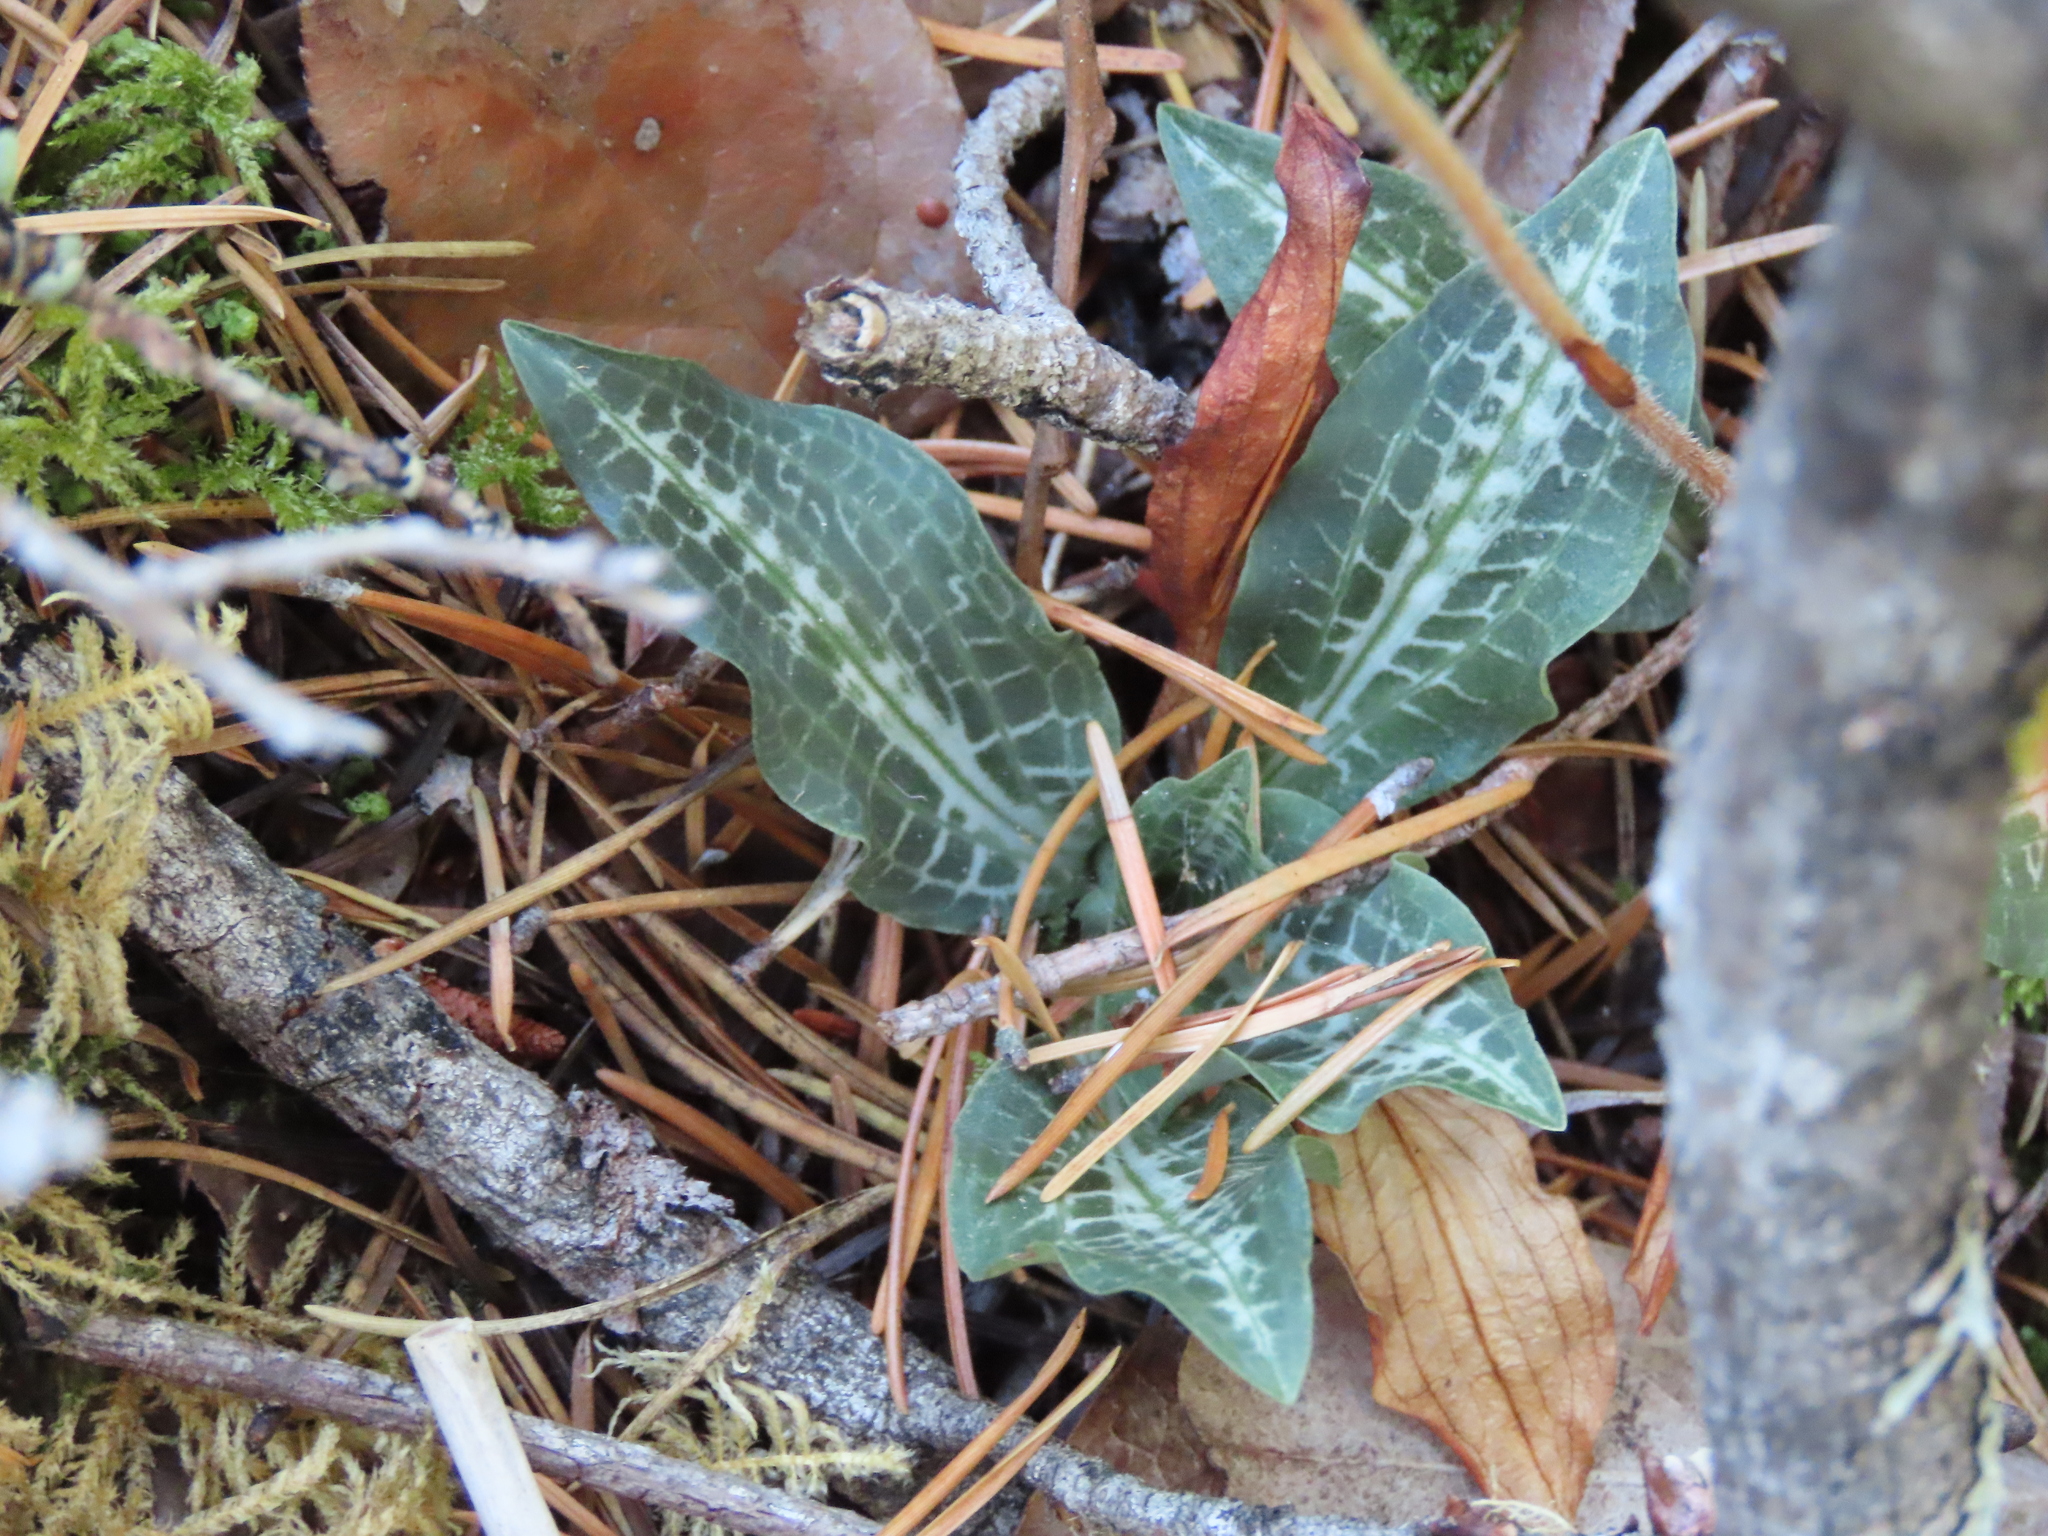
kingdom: Plantae
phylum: Tracheophyta
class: Liliopsida
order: Asparagales
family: Orchidaceae
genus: Goodyera
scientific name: Goodyera oblongifolia
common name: Giant rattlesnake-plantain
